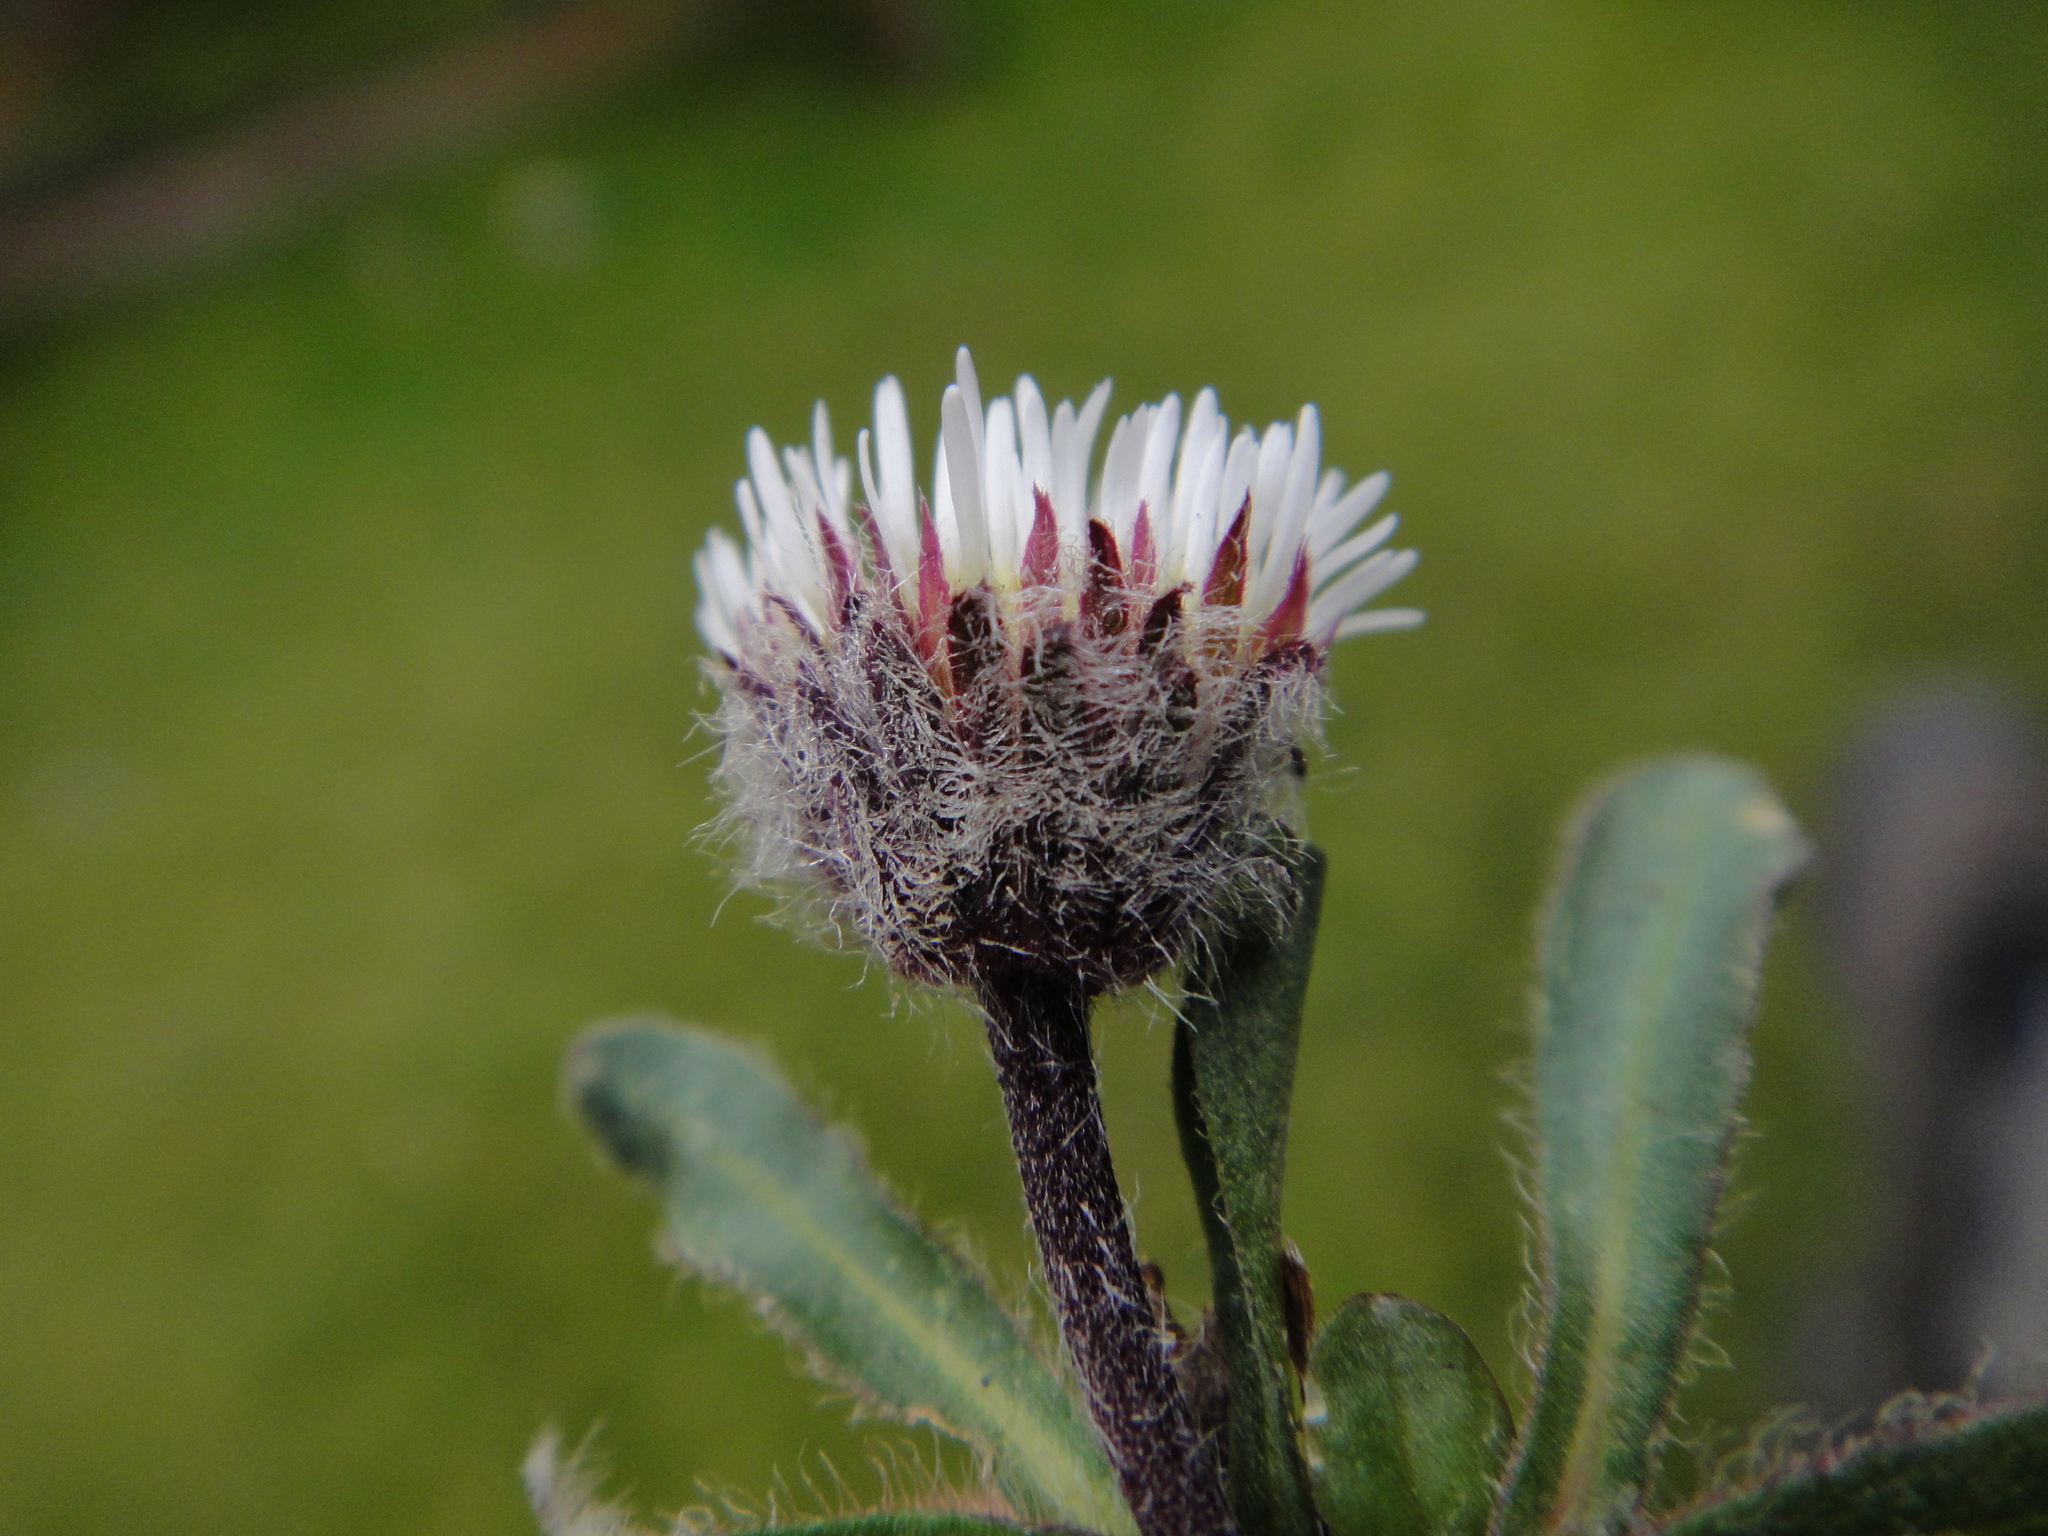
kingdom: Plantae
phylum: Tracheophyta
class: Magnoliopsida
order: Asterales
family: Asteraceae
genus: Erigeron
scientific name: Erigeron uniflorus
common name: Northern daisy
